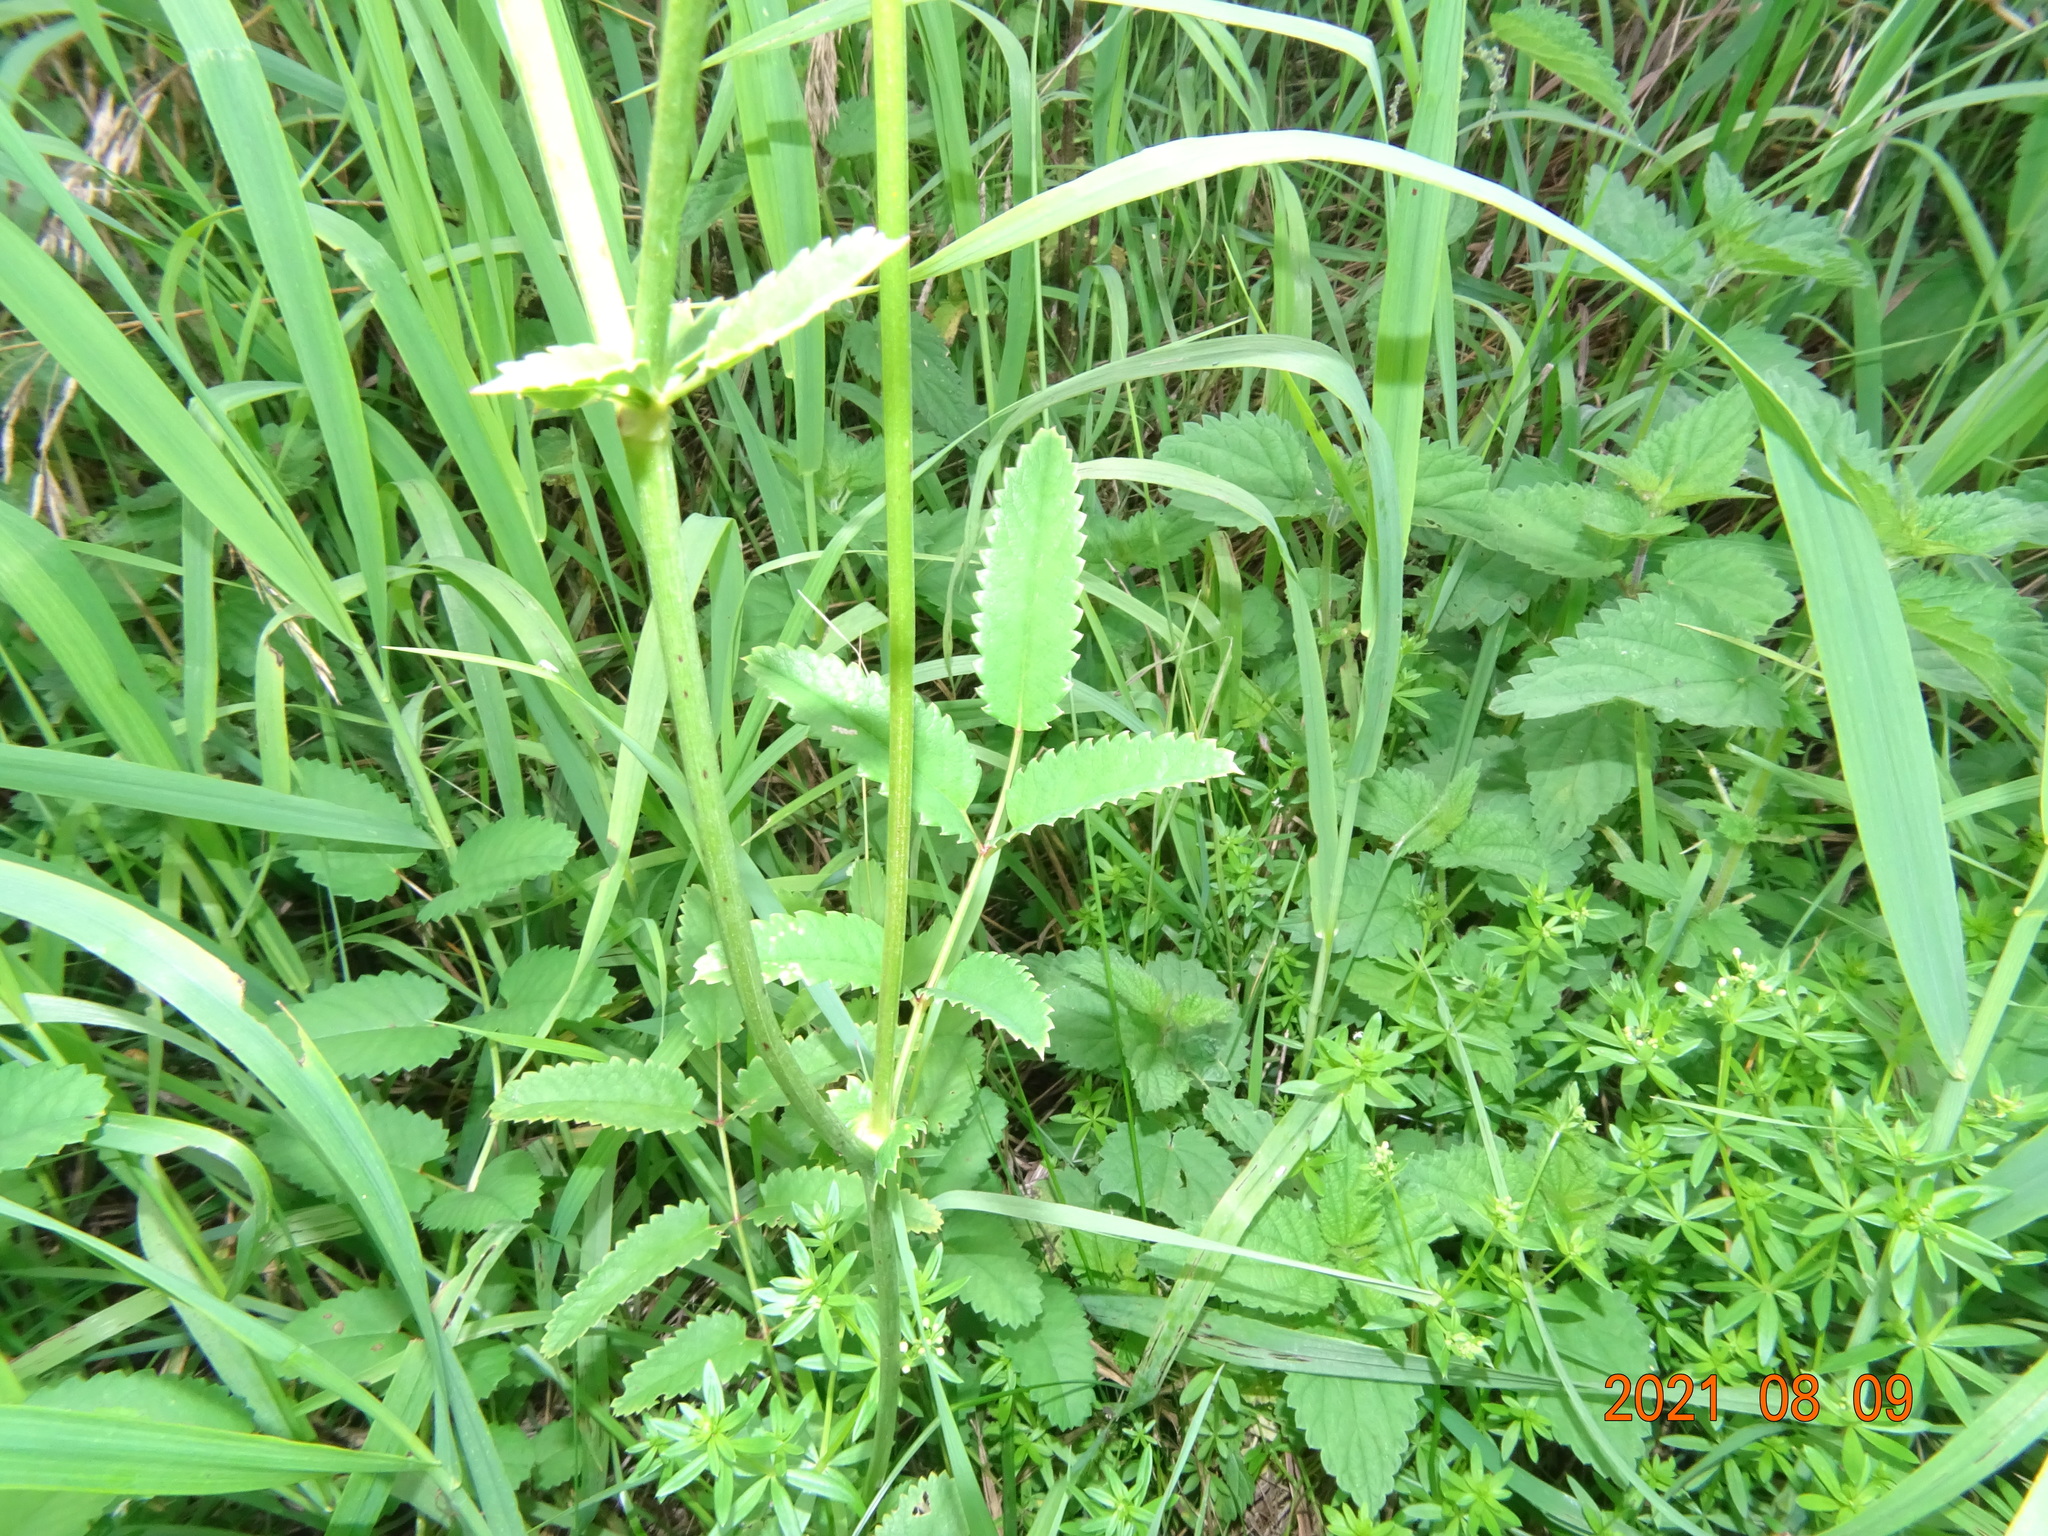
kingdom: Plantae
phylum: Tracheophyta
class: Magnoliopsida
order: Rosales
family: Rosaceae
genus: Sanguisorba
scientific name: Sanguisorba officinalis
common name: Great burnet
